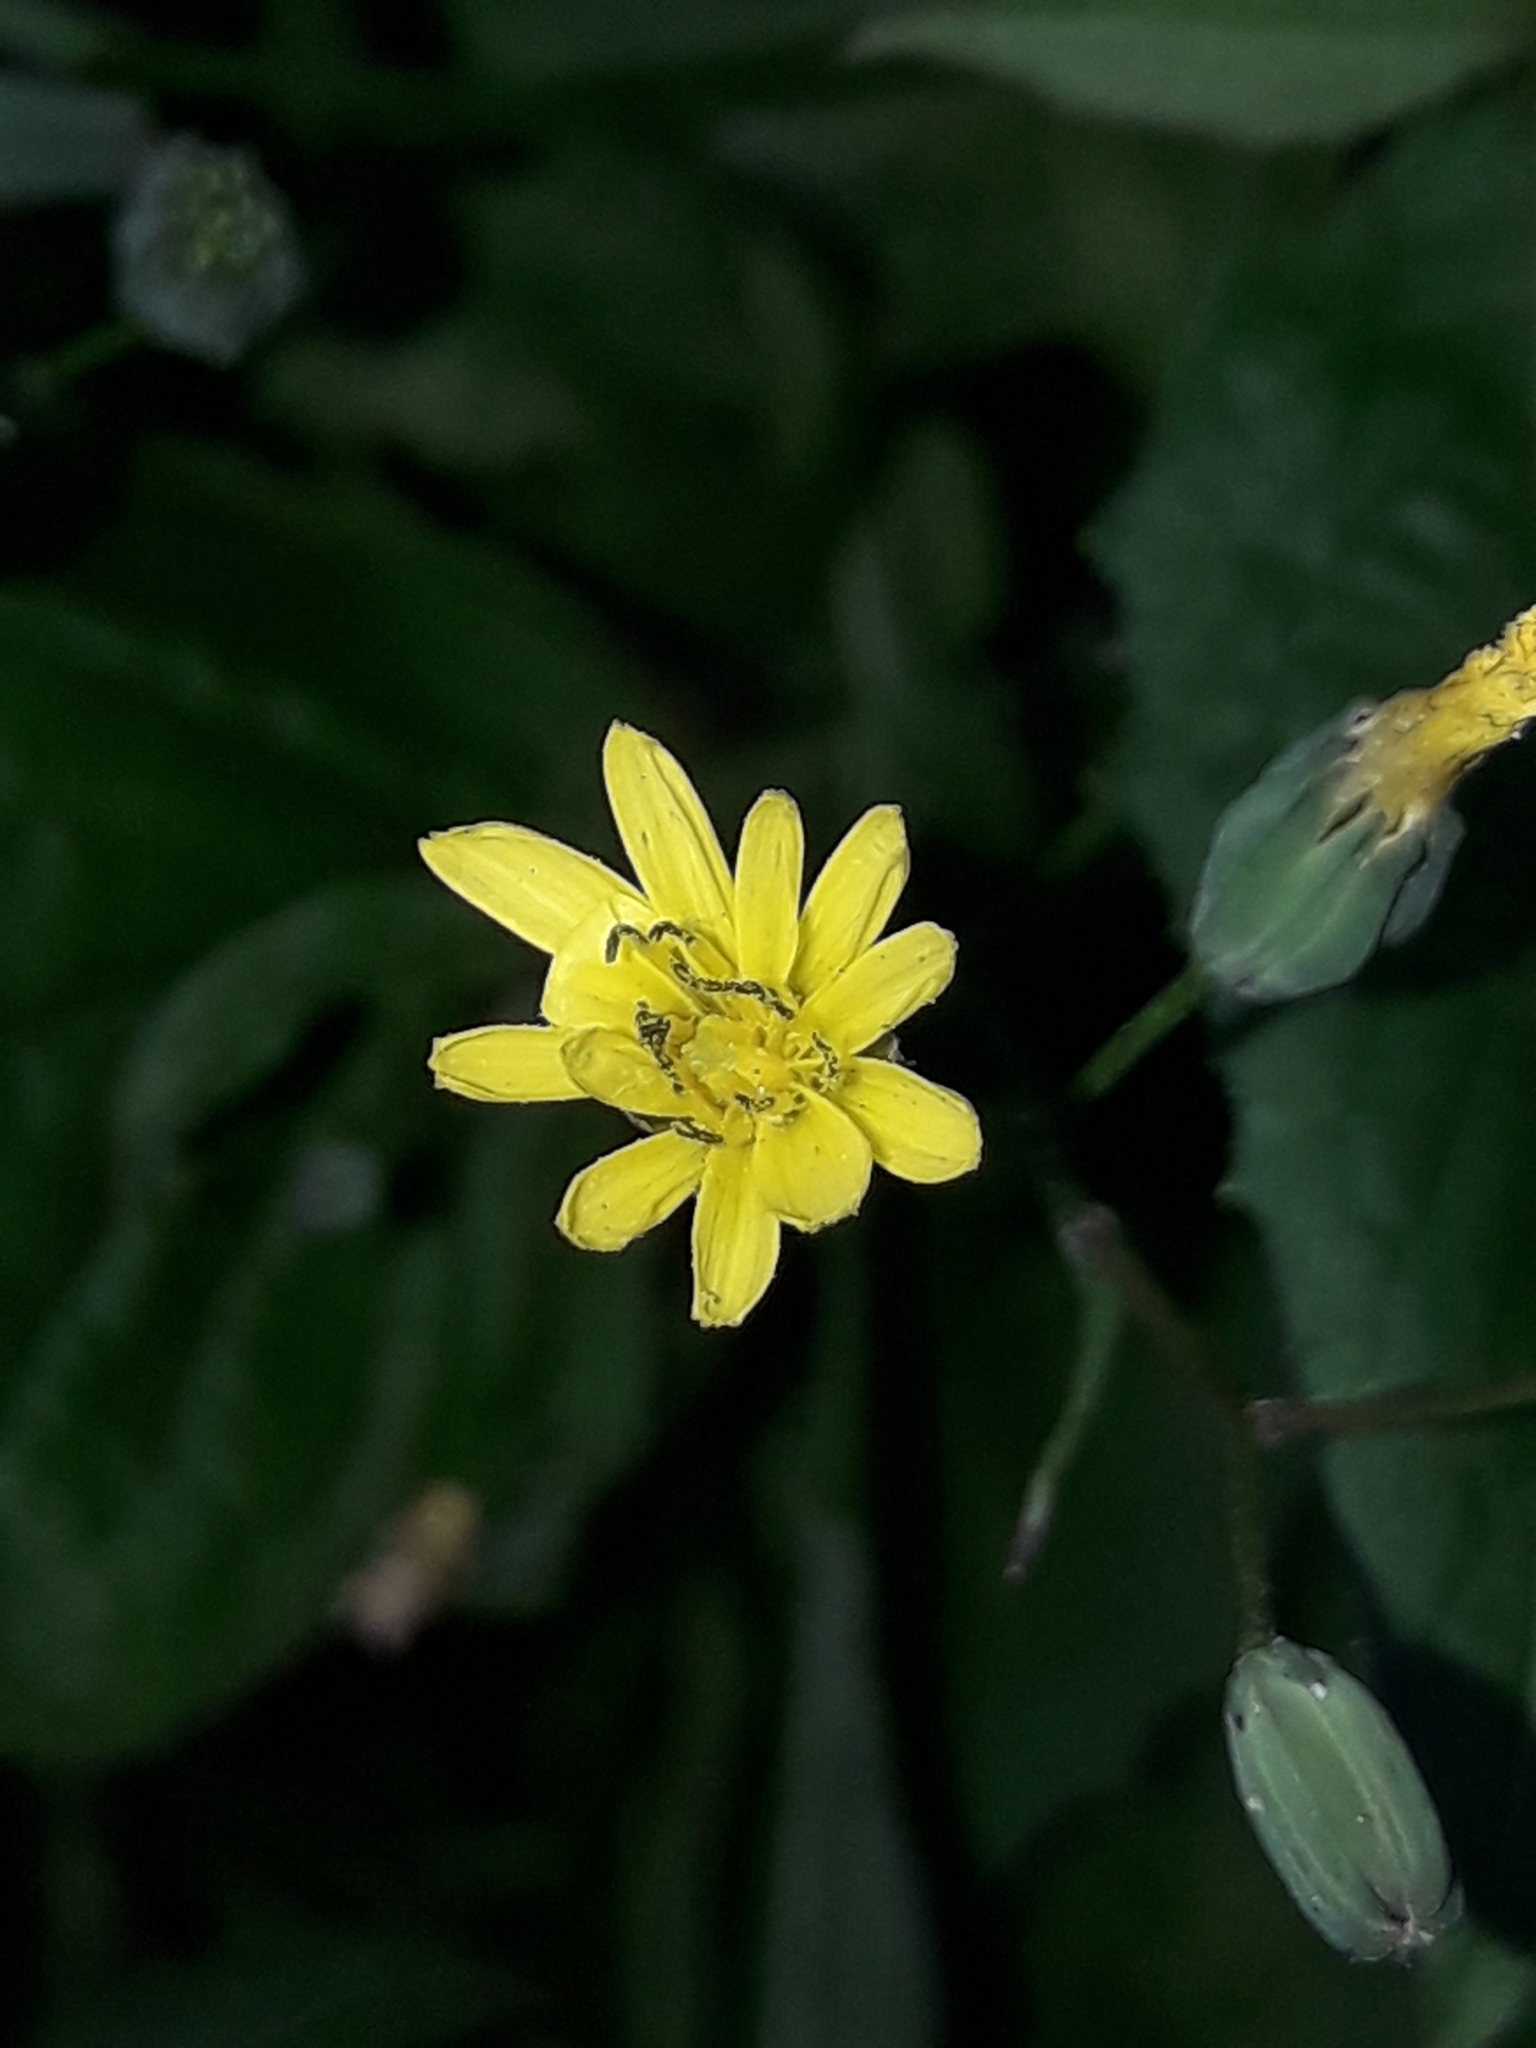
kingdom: Plantae
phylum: Tracheophyta
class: Magnoliopsida
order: Asterales
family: Asteraceae
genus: Lapsana
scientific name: Lapsana communis
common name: Nipplewort
